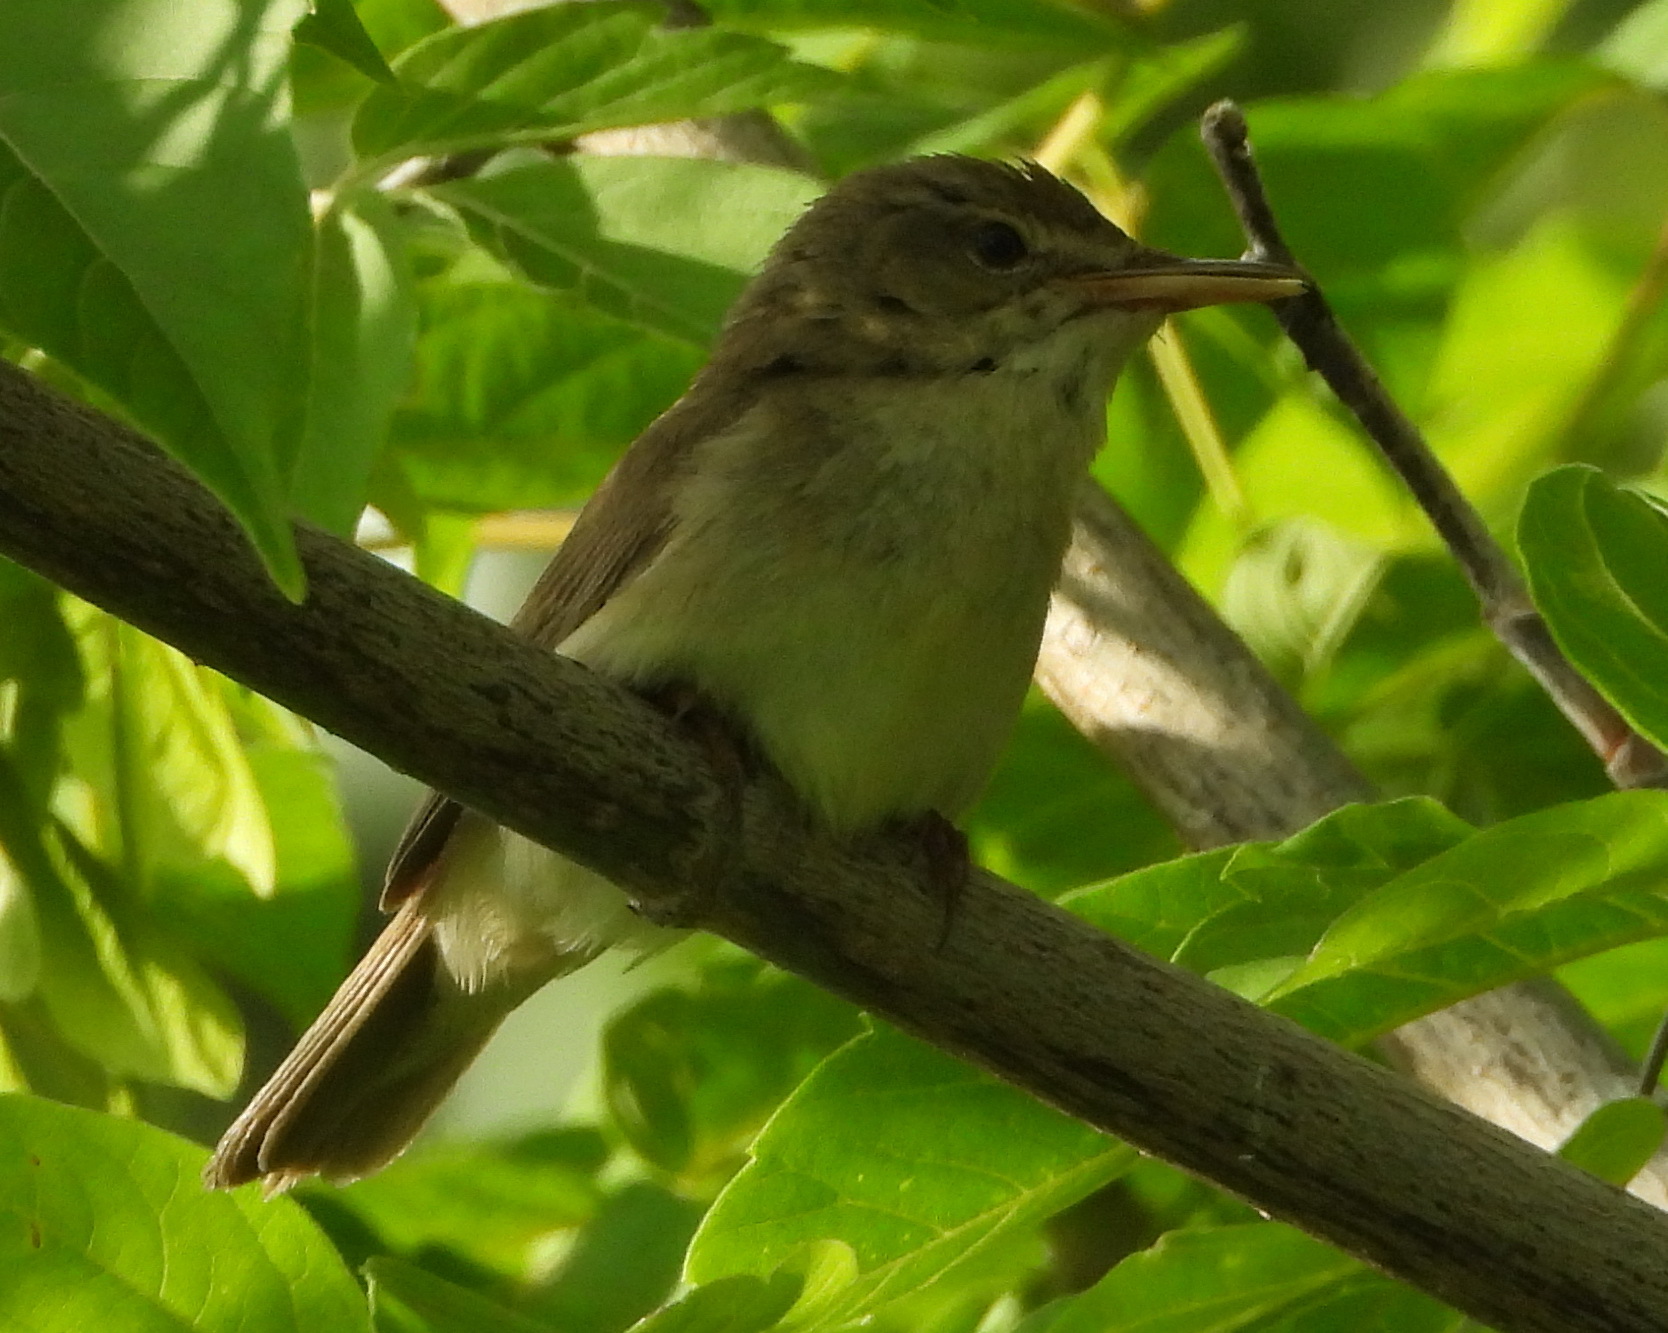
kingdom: Animalia
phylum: Chordata
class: Aves
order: Passeriformes
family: Acrocephalidae
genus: Acrocephalus
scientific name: Acrocephalus dumetorum
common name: Blyth's reed warbler
